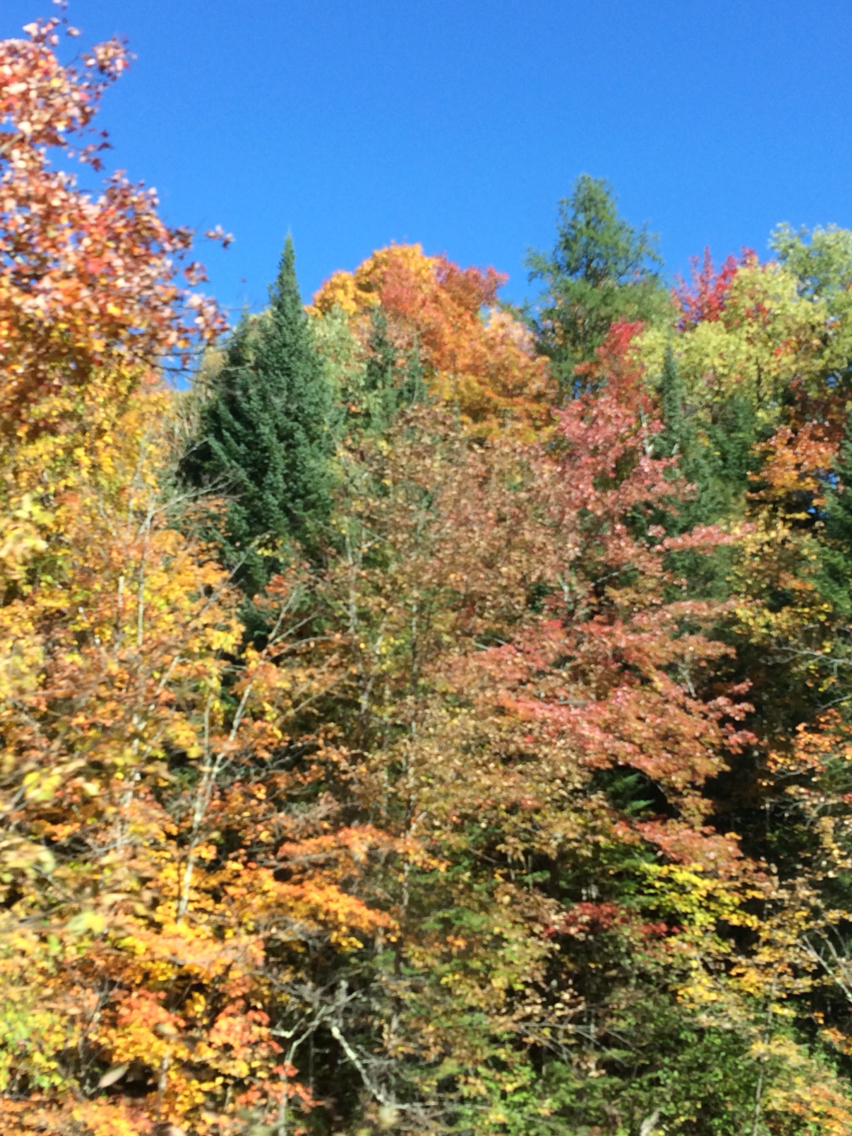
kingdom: Plantae
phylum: Tracheophyta
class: Magnoliopsida
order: Sapindales
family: Sapindaceae
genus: Acer
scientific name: Acer rubrum
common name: Red maple
